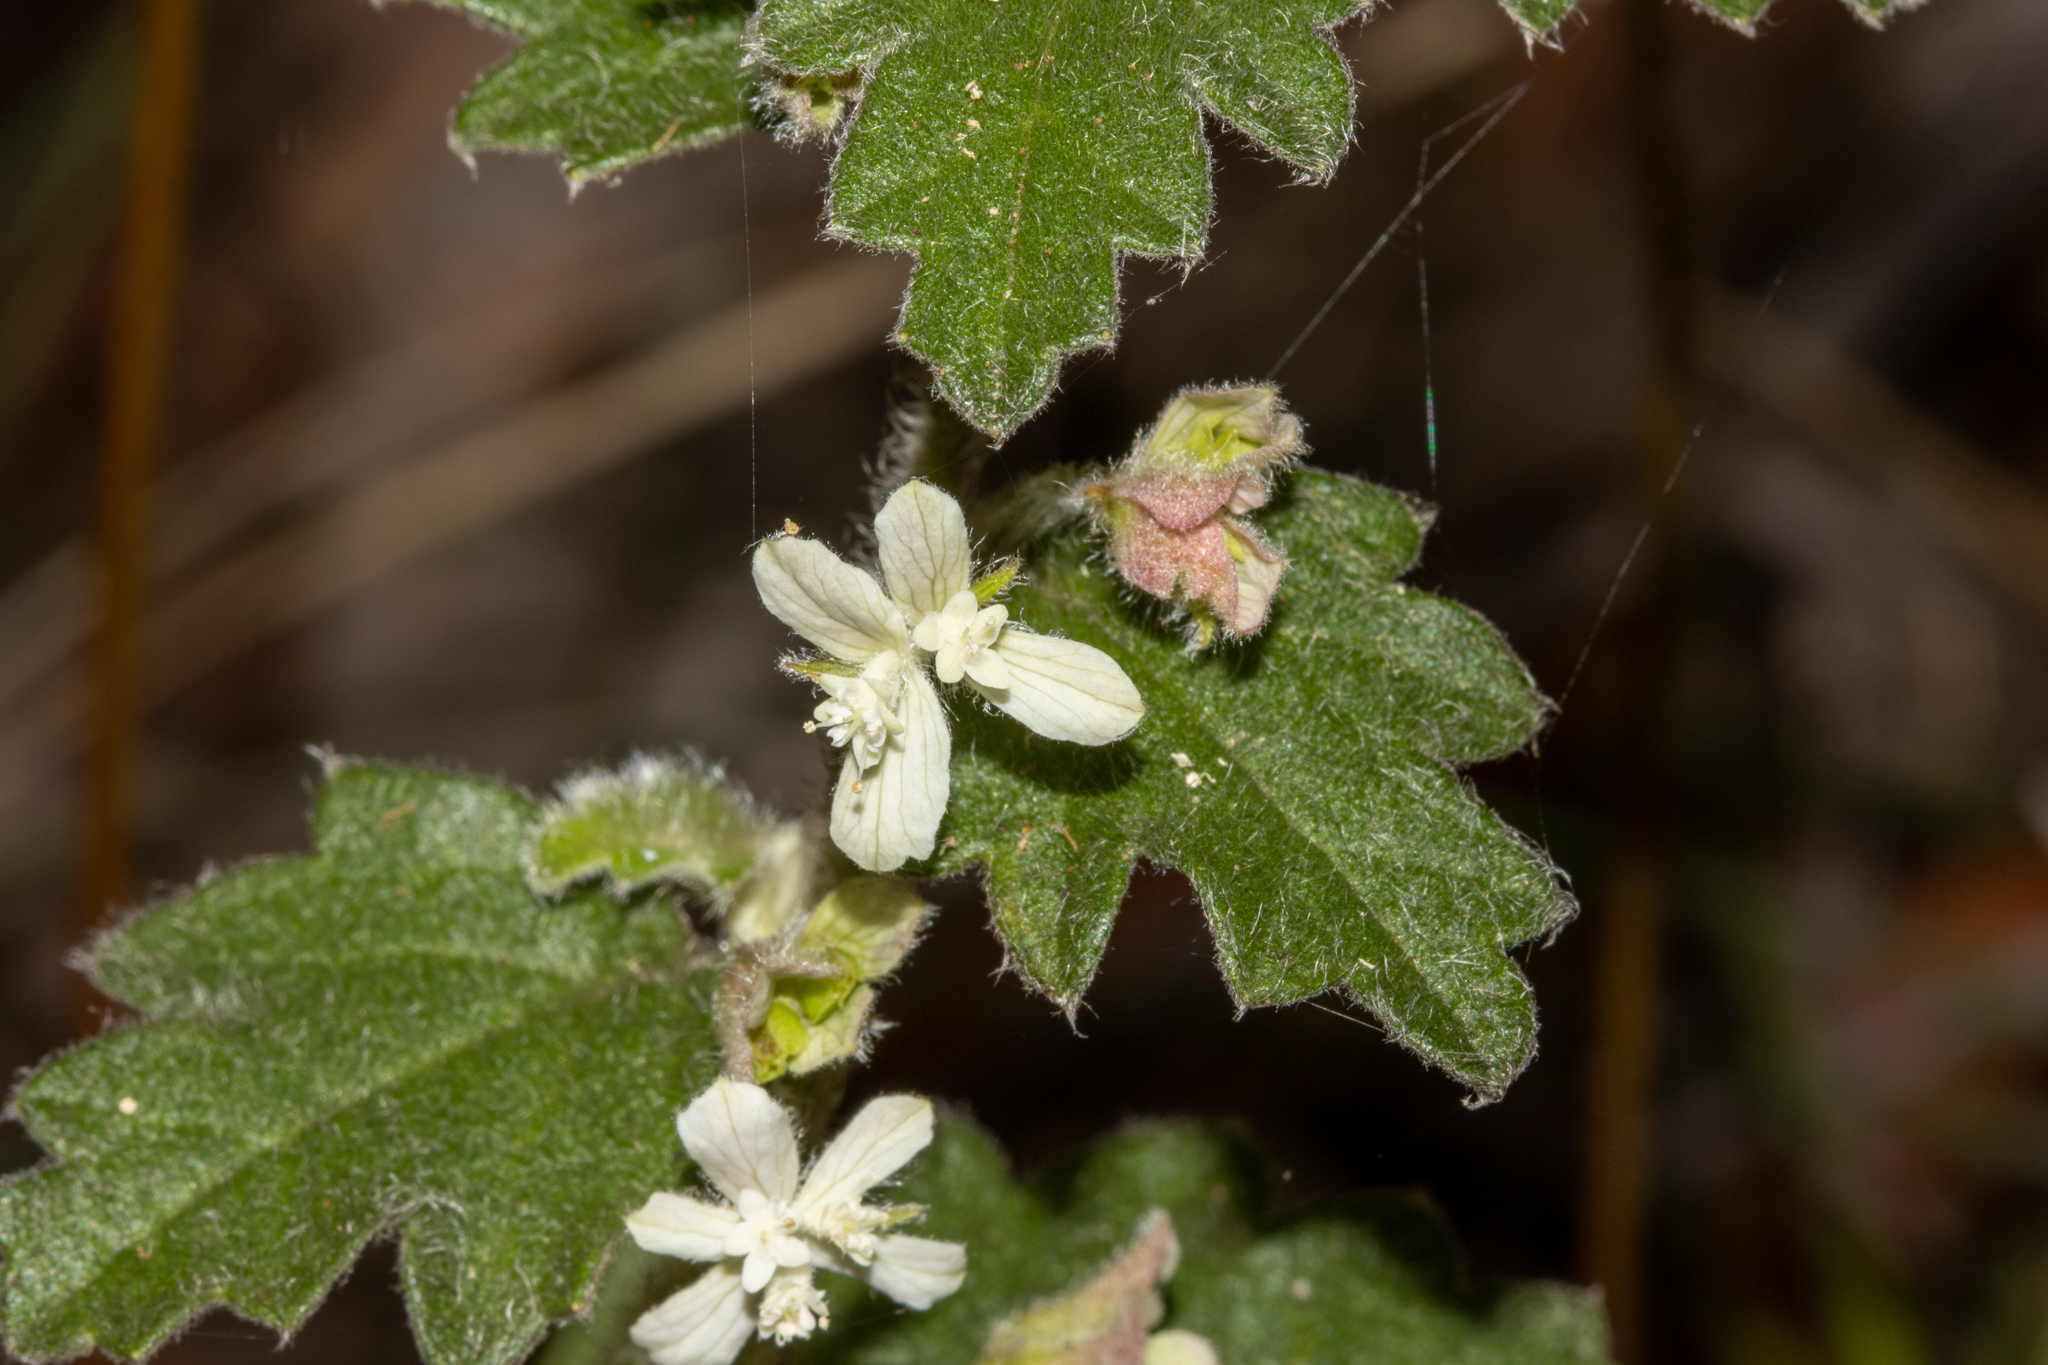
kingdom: Plantae
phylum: Tracheophyta
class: Magnoliopsida
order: Apiales
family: Apiaceae
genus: Xanthosia
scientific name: Xanthosia pilosa
